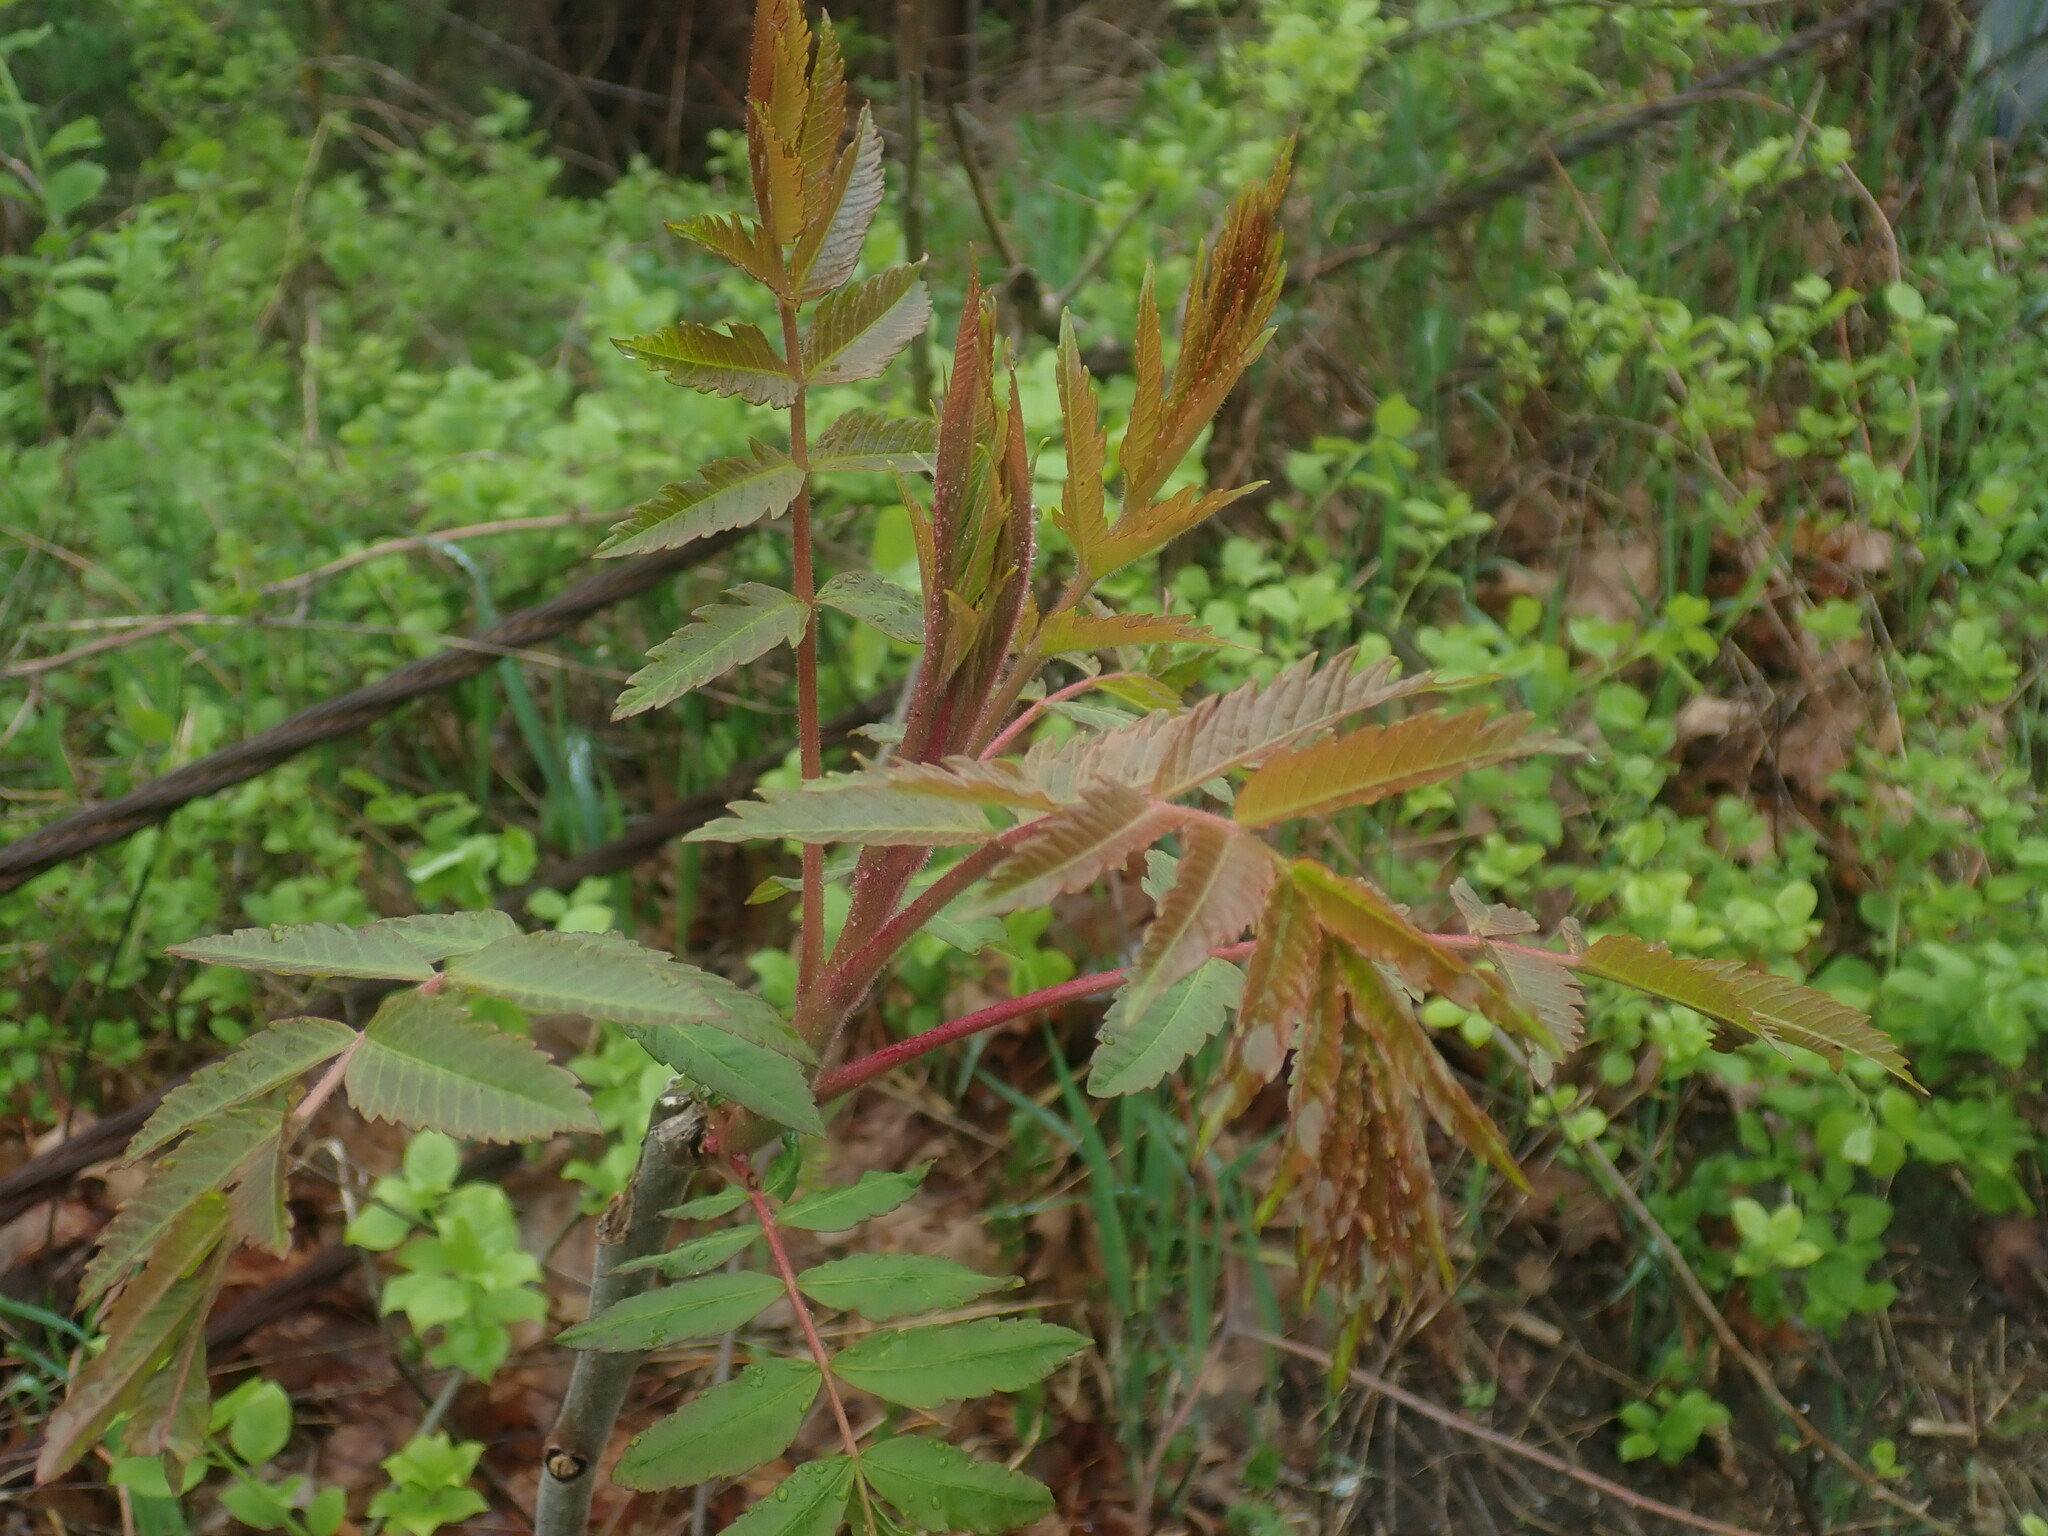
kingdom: Plantae
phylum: Tracheophyta
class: Magnoliopsida
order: Sapindales
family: Anacardiaceae
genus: Rhus
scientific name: Rhus typhina
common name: Staghorn sumac
